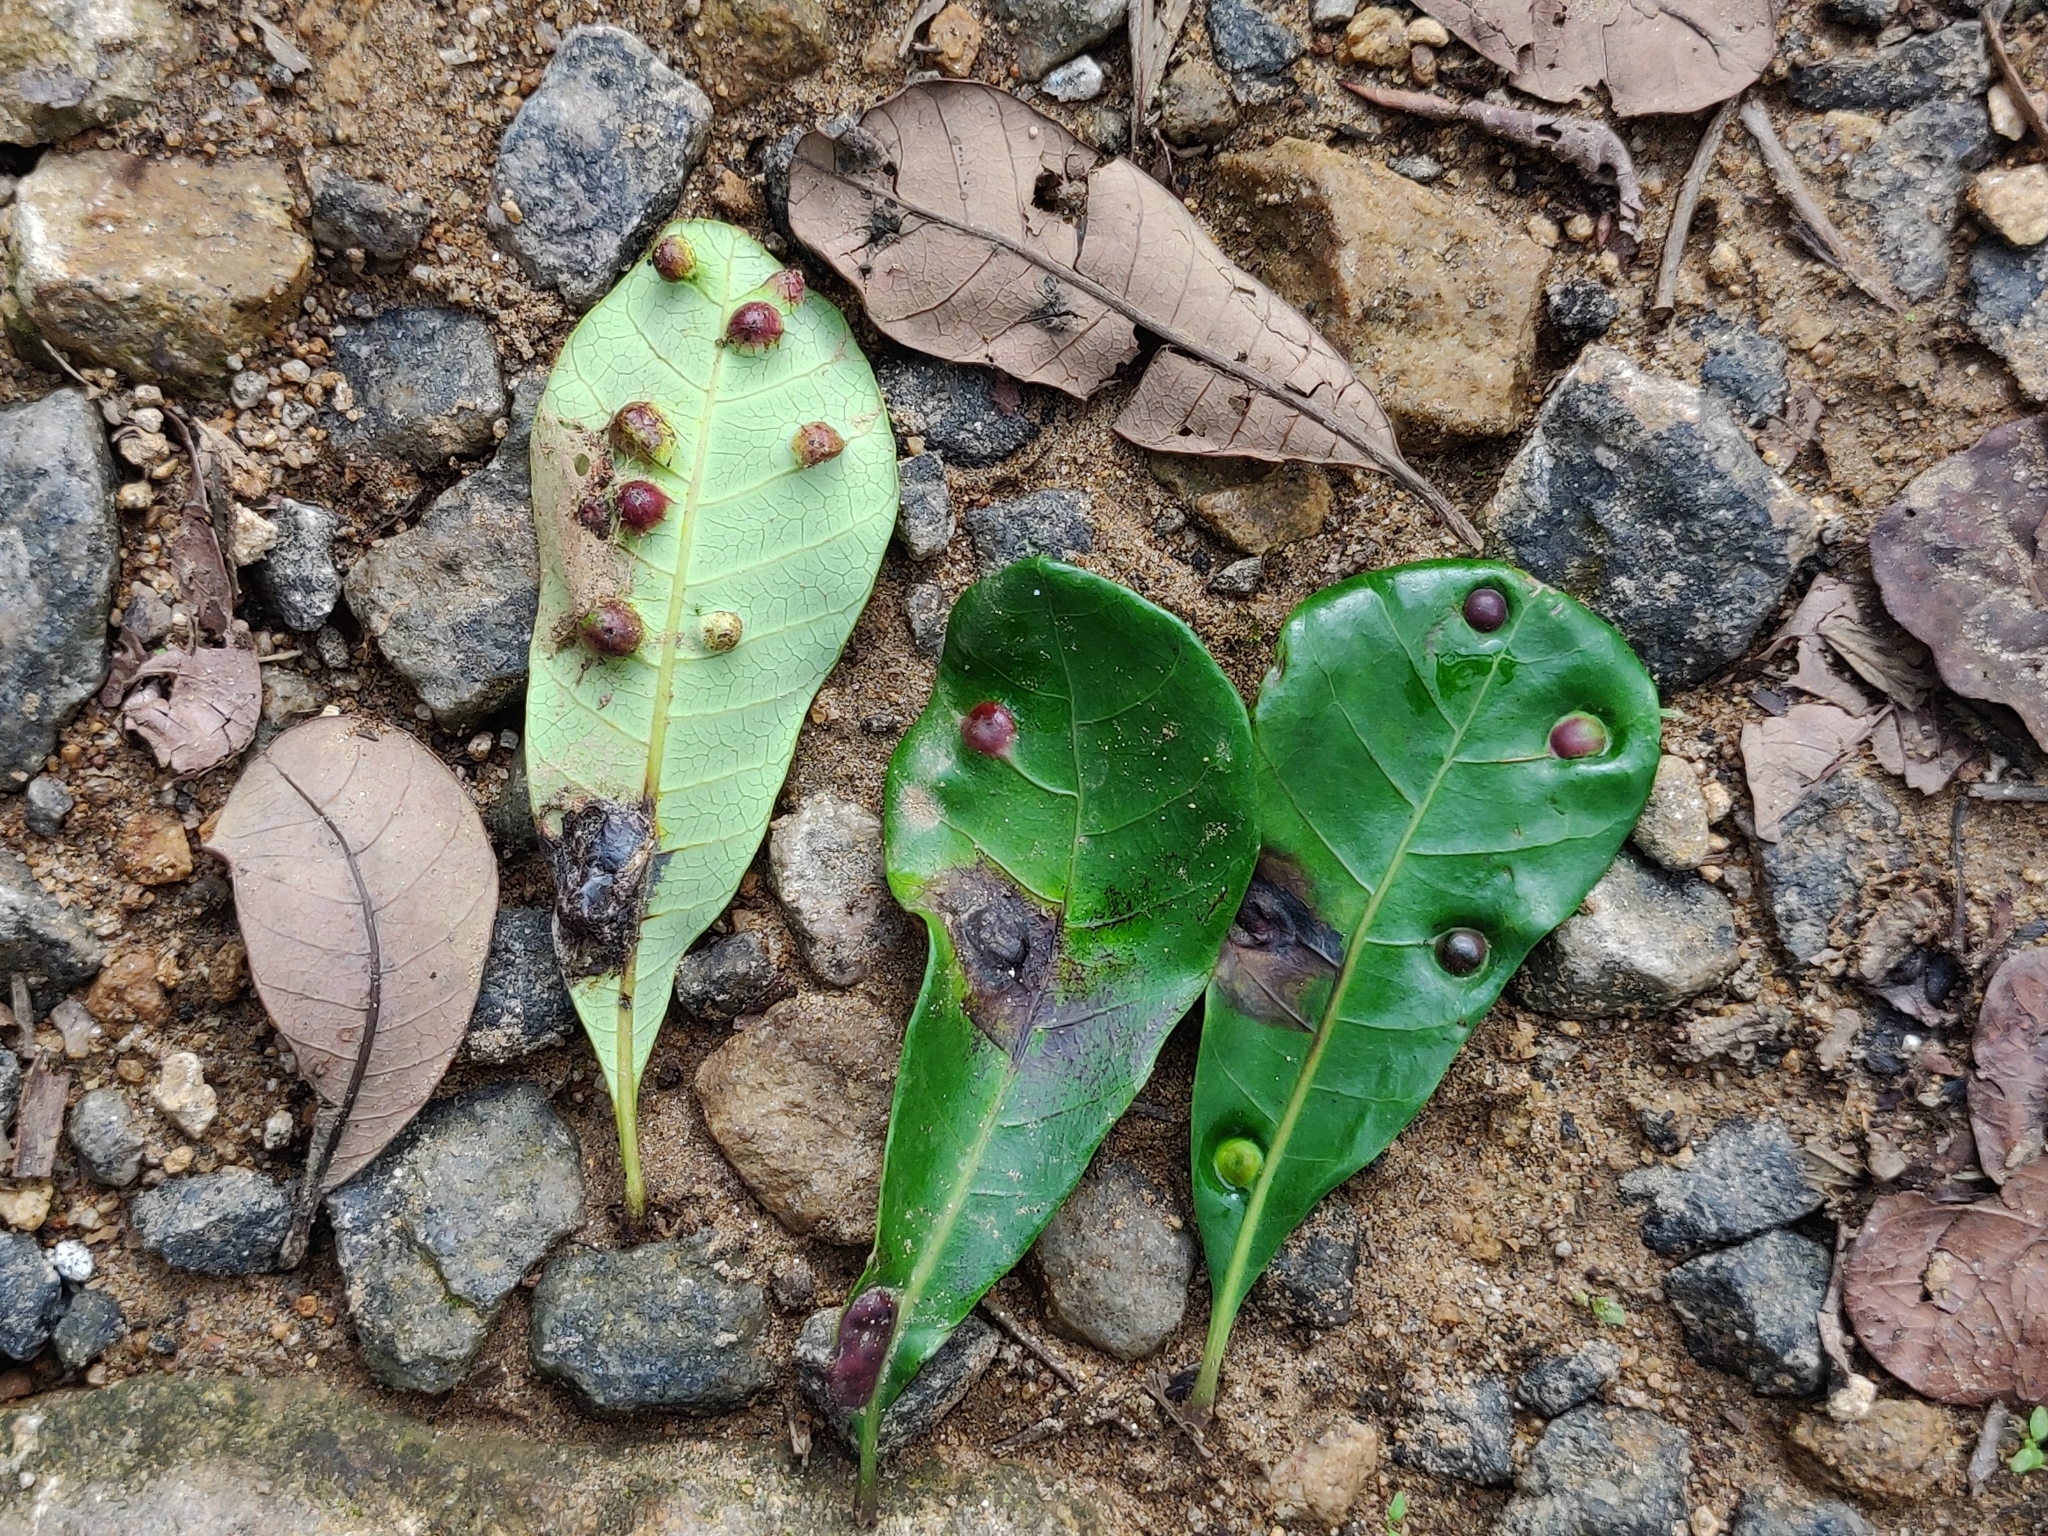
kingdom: Plantae
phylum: Tracheophyta
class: Magnoliopsida
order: Sapindales
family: Anacardiaceae
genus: Holigarna
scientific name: Holigarna nigra
